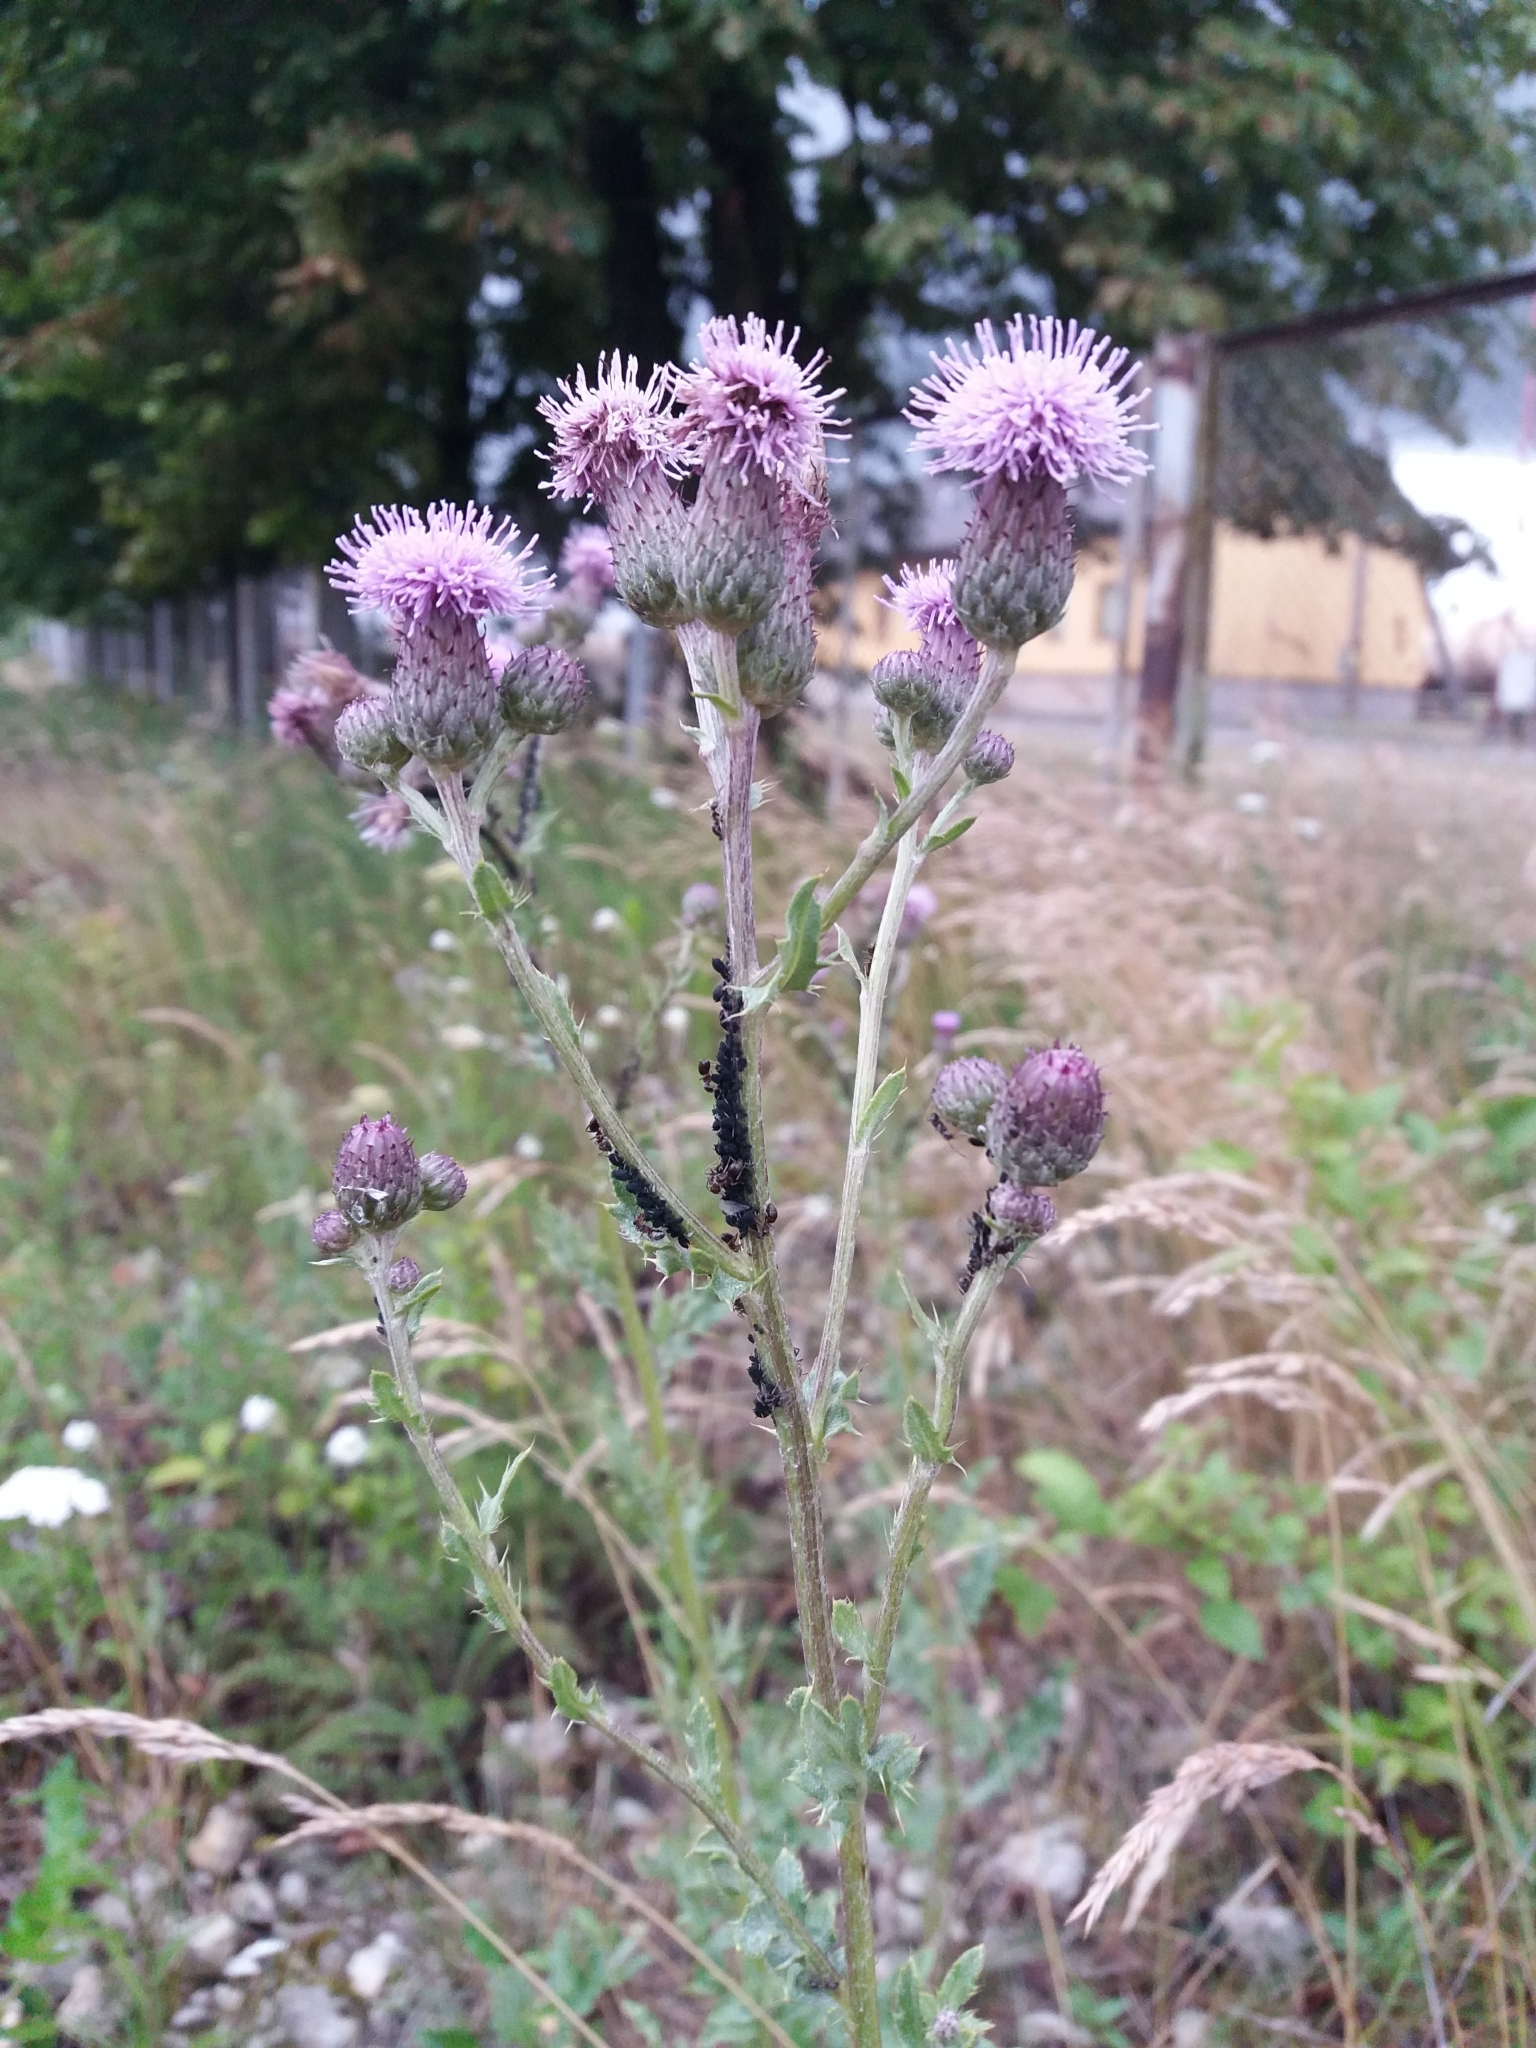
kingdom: Plantae
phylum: Tracheophyta
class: Magnoliopsida
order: Asterales
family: Asteraceae
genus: Cirsium
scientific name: Cirsium arvense
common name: Creeping thistle
